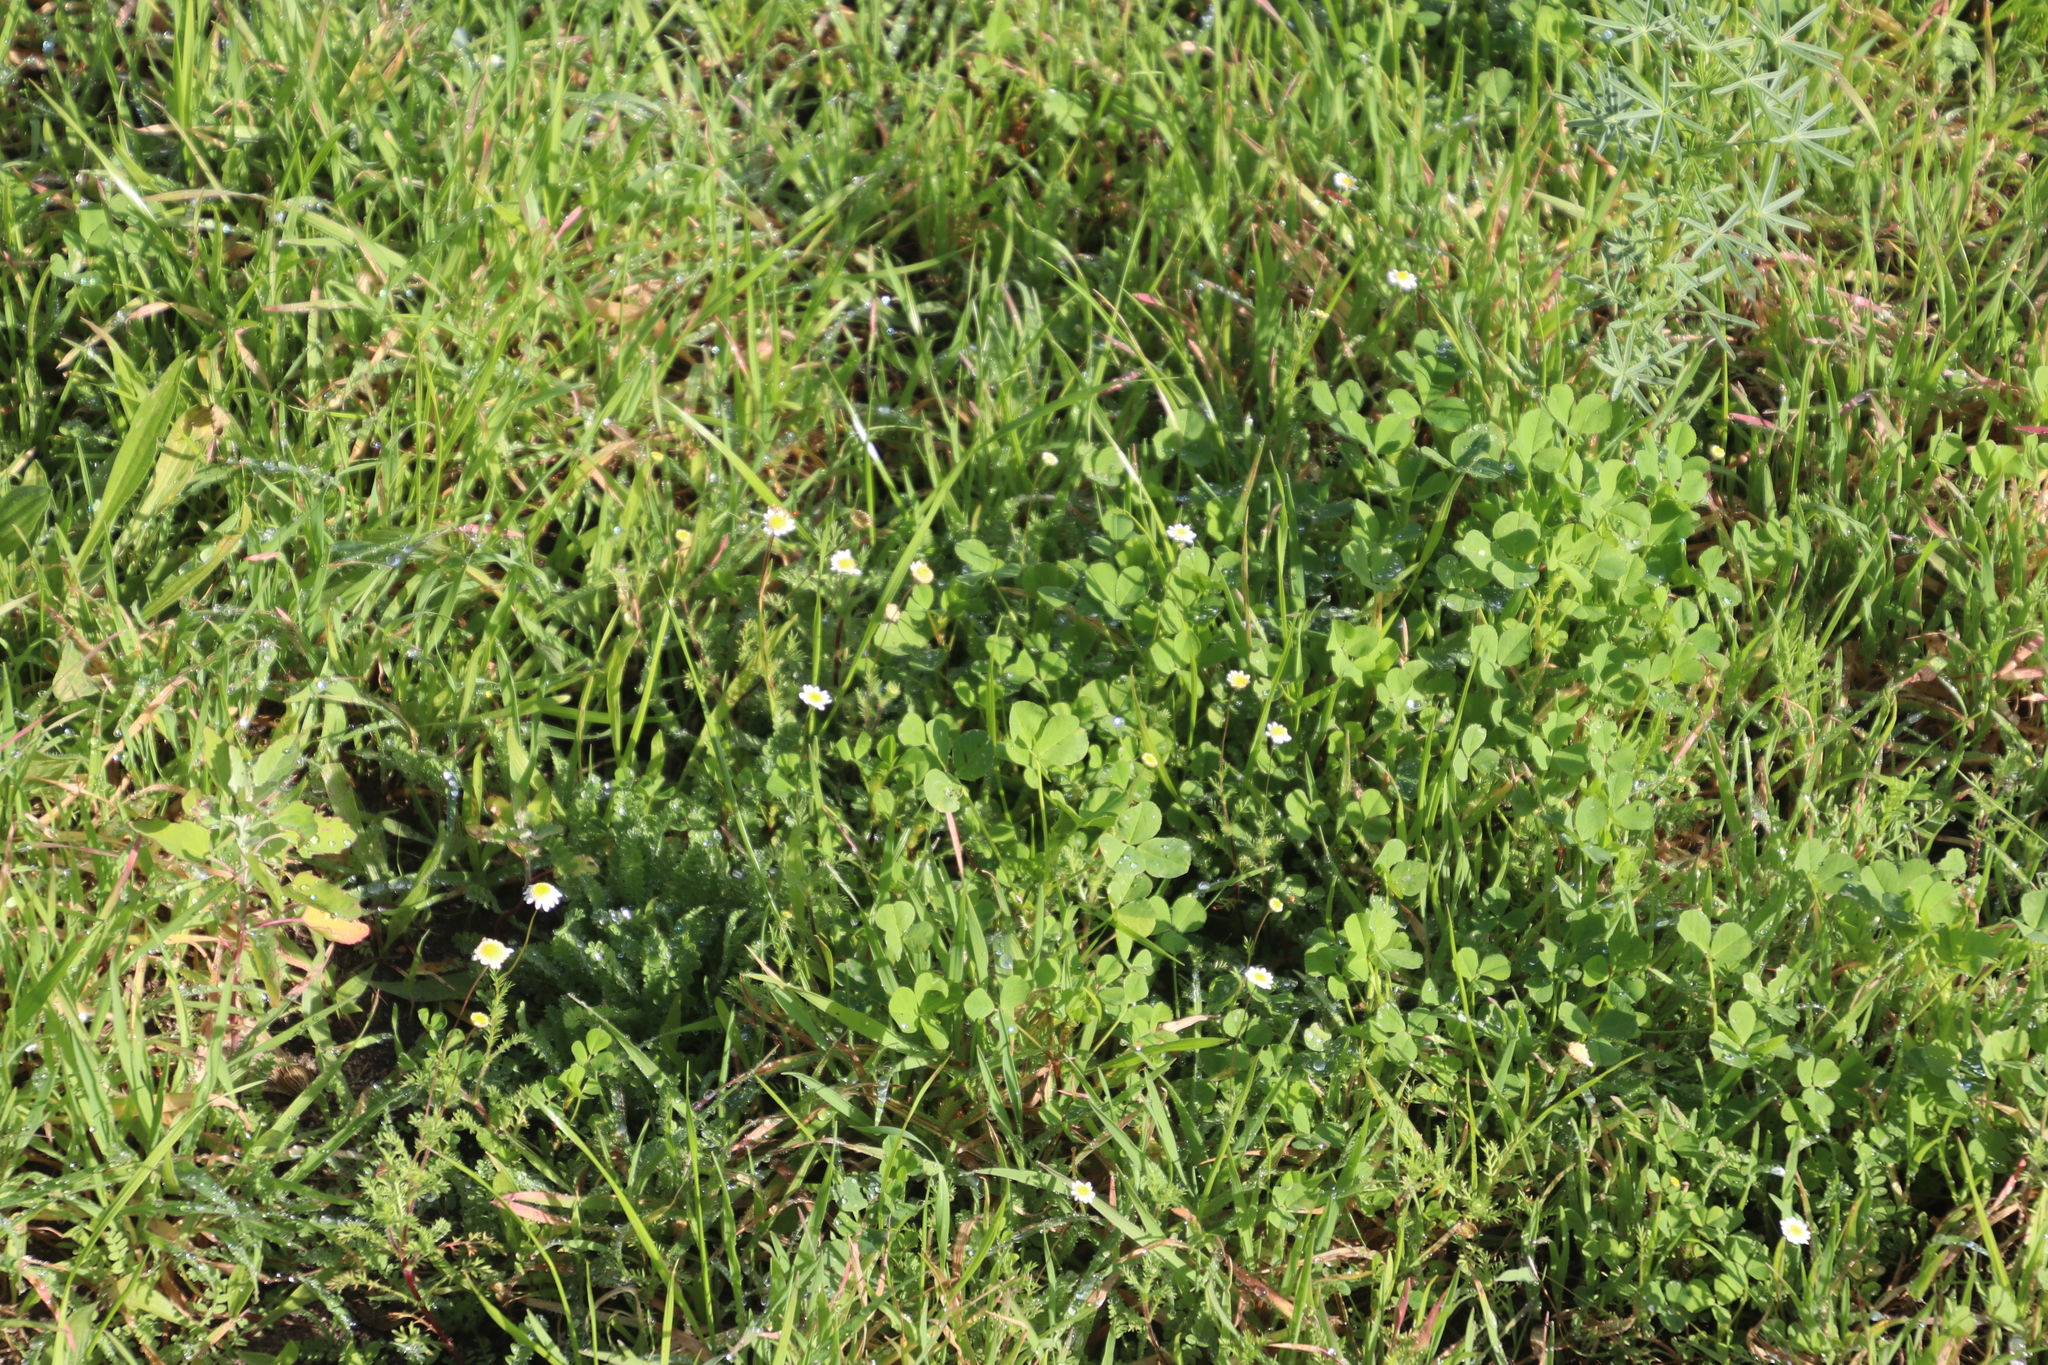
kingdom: Plantae
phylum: Tracheophyta
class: Magnoliopsida
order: Asterales
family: Asteraceae
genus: Cotula
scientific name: Cotula turbinata
